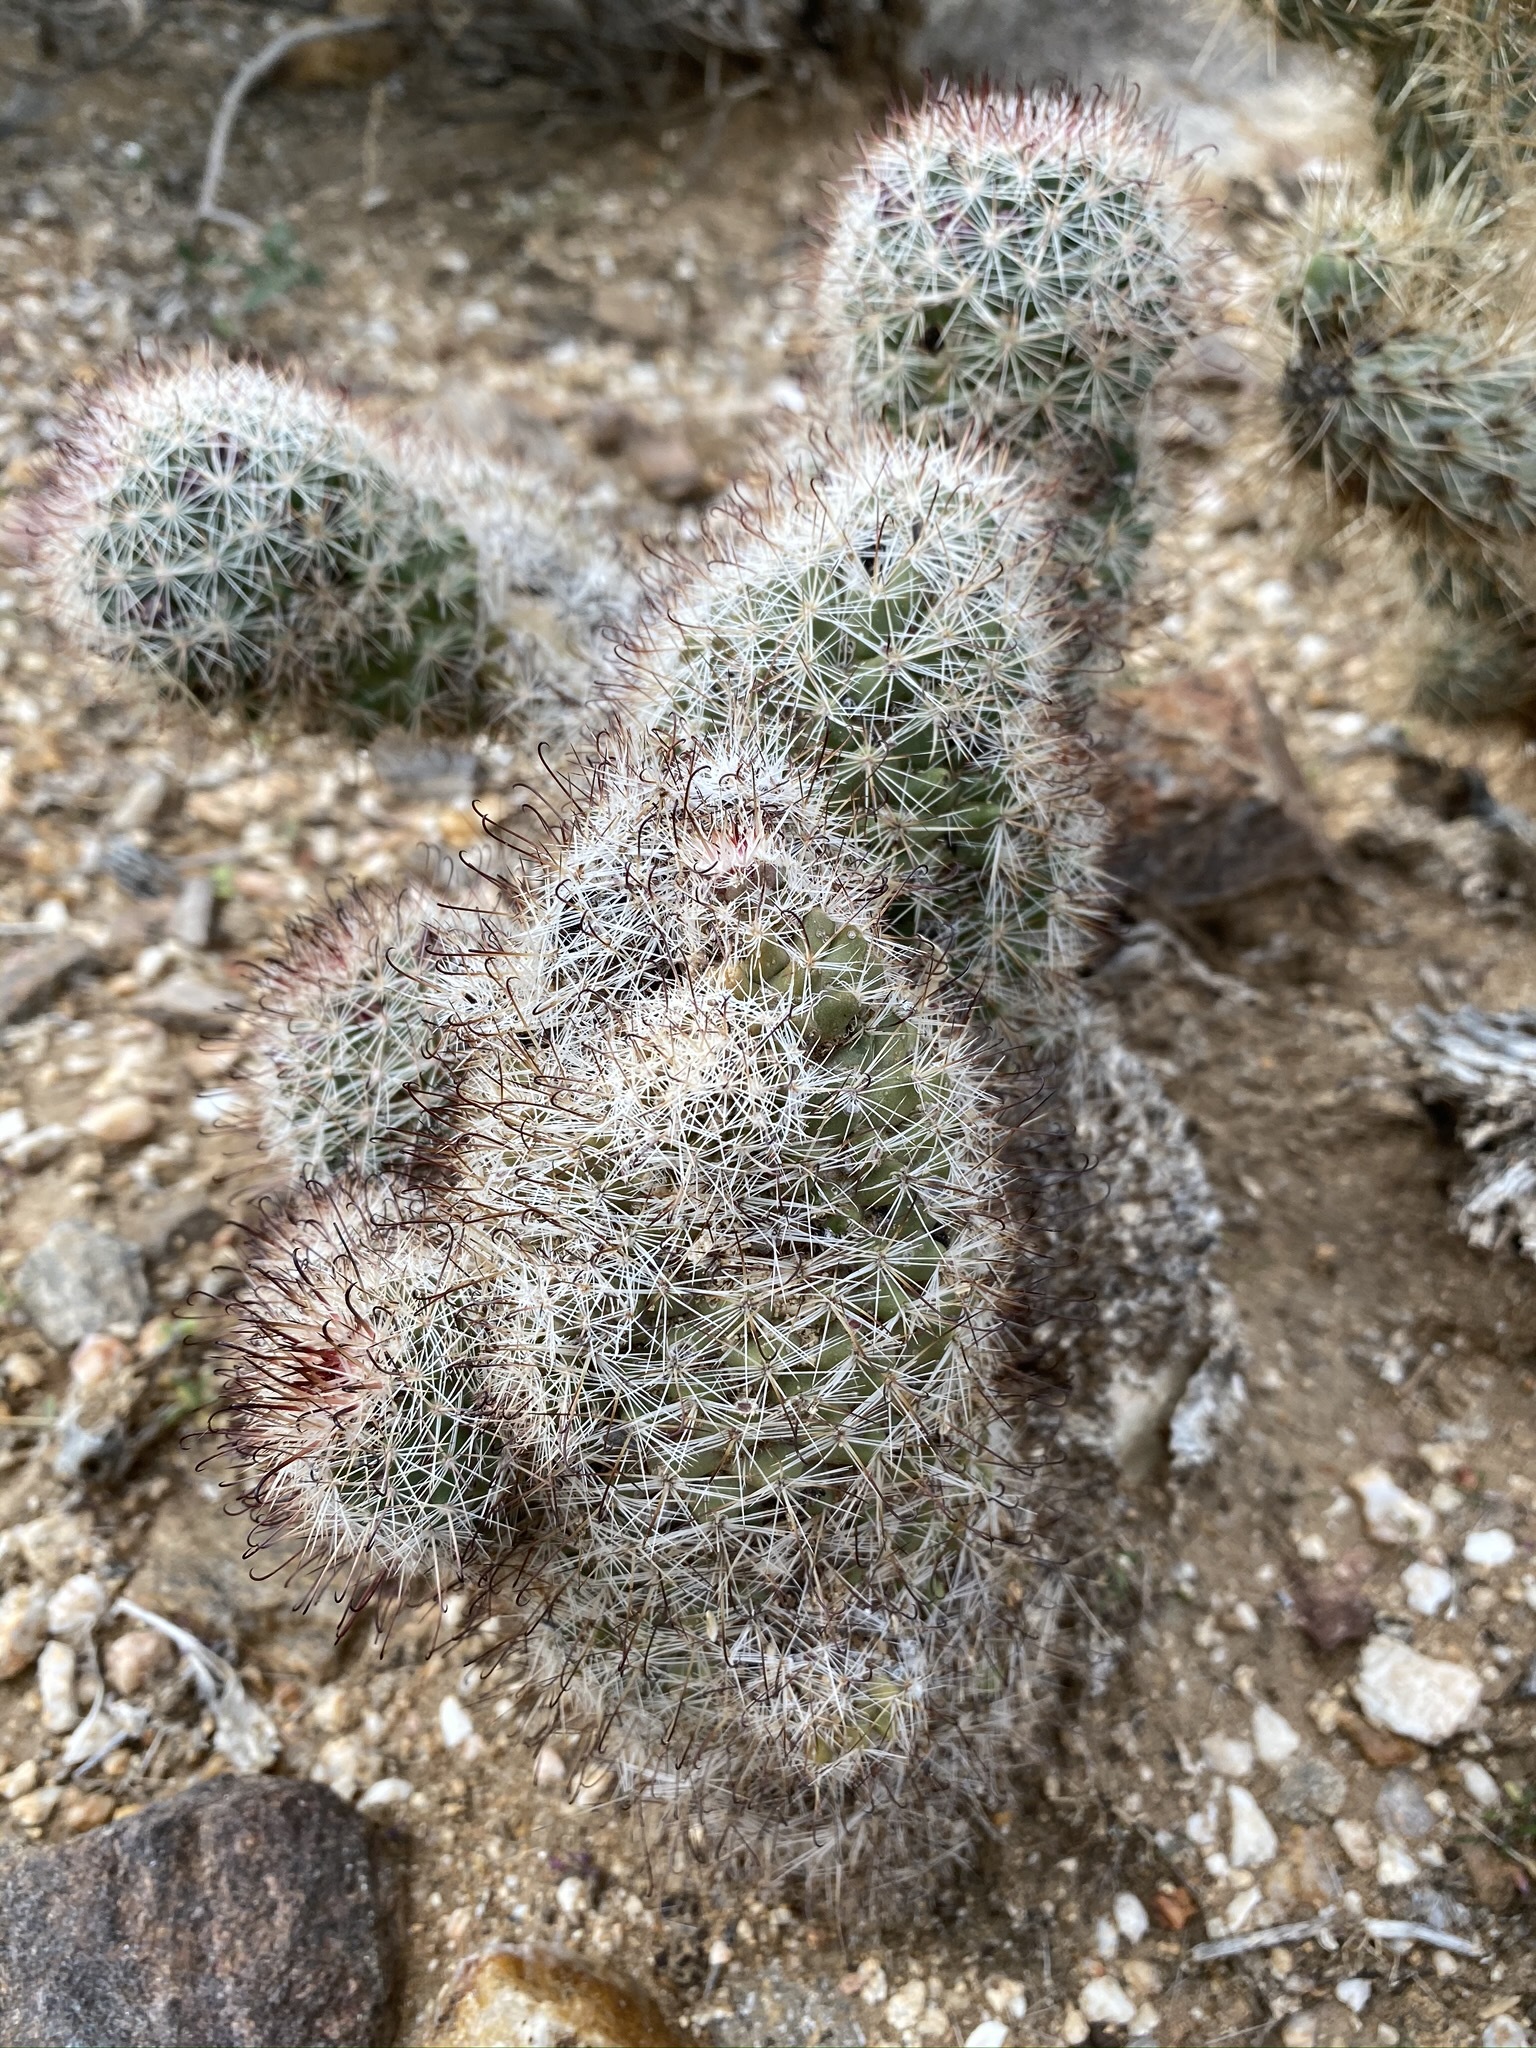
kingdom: Plantae
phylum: Tracheophyta
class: Magnoliopsida
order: Caryophyllales
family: Cactaceae
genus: Cochemiea
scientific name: Cochemiea dioica
